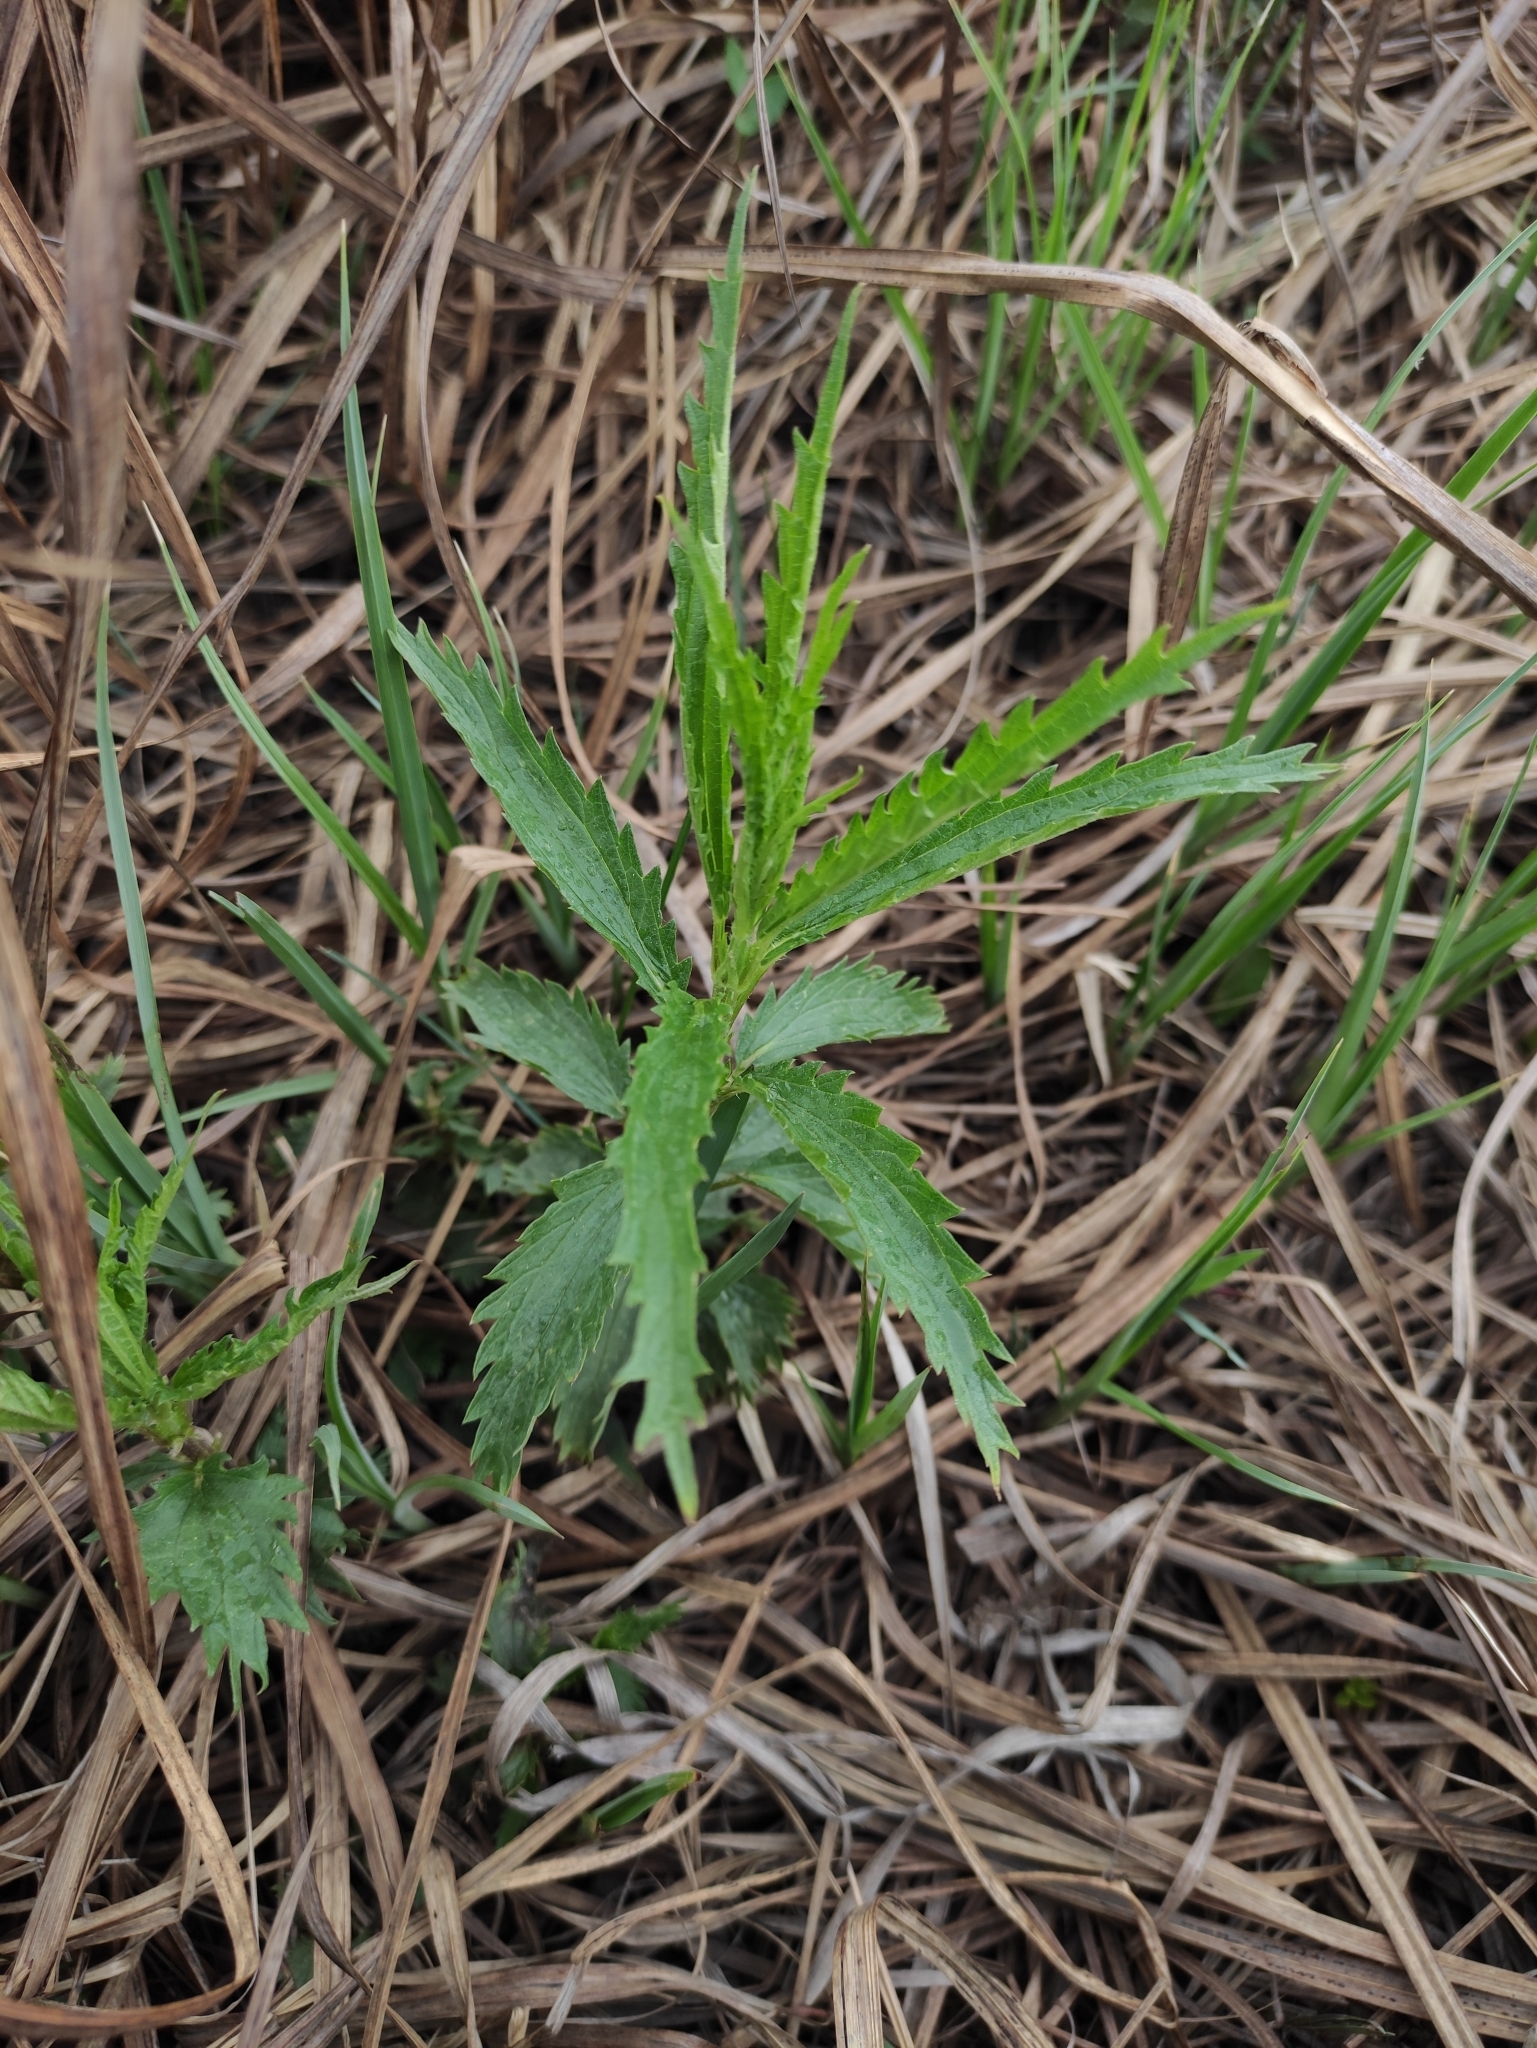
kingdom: Plantae
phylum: Tracheophyta
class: Magnoliopsida
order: Rosales
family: Urticaceae
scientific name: Urticaceae
